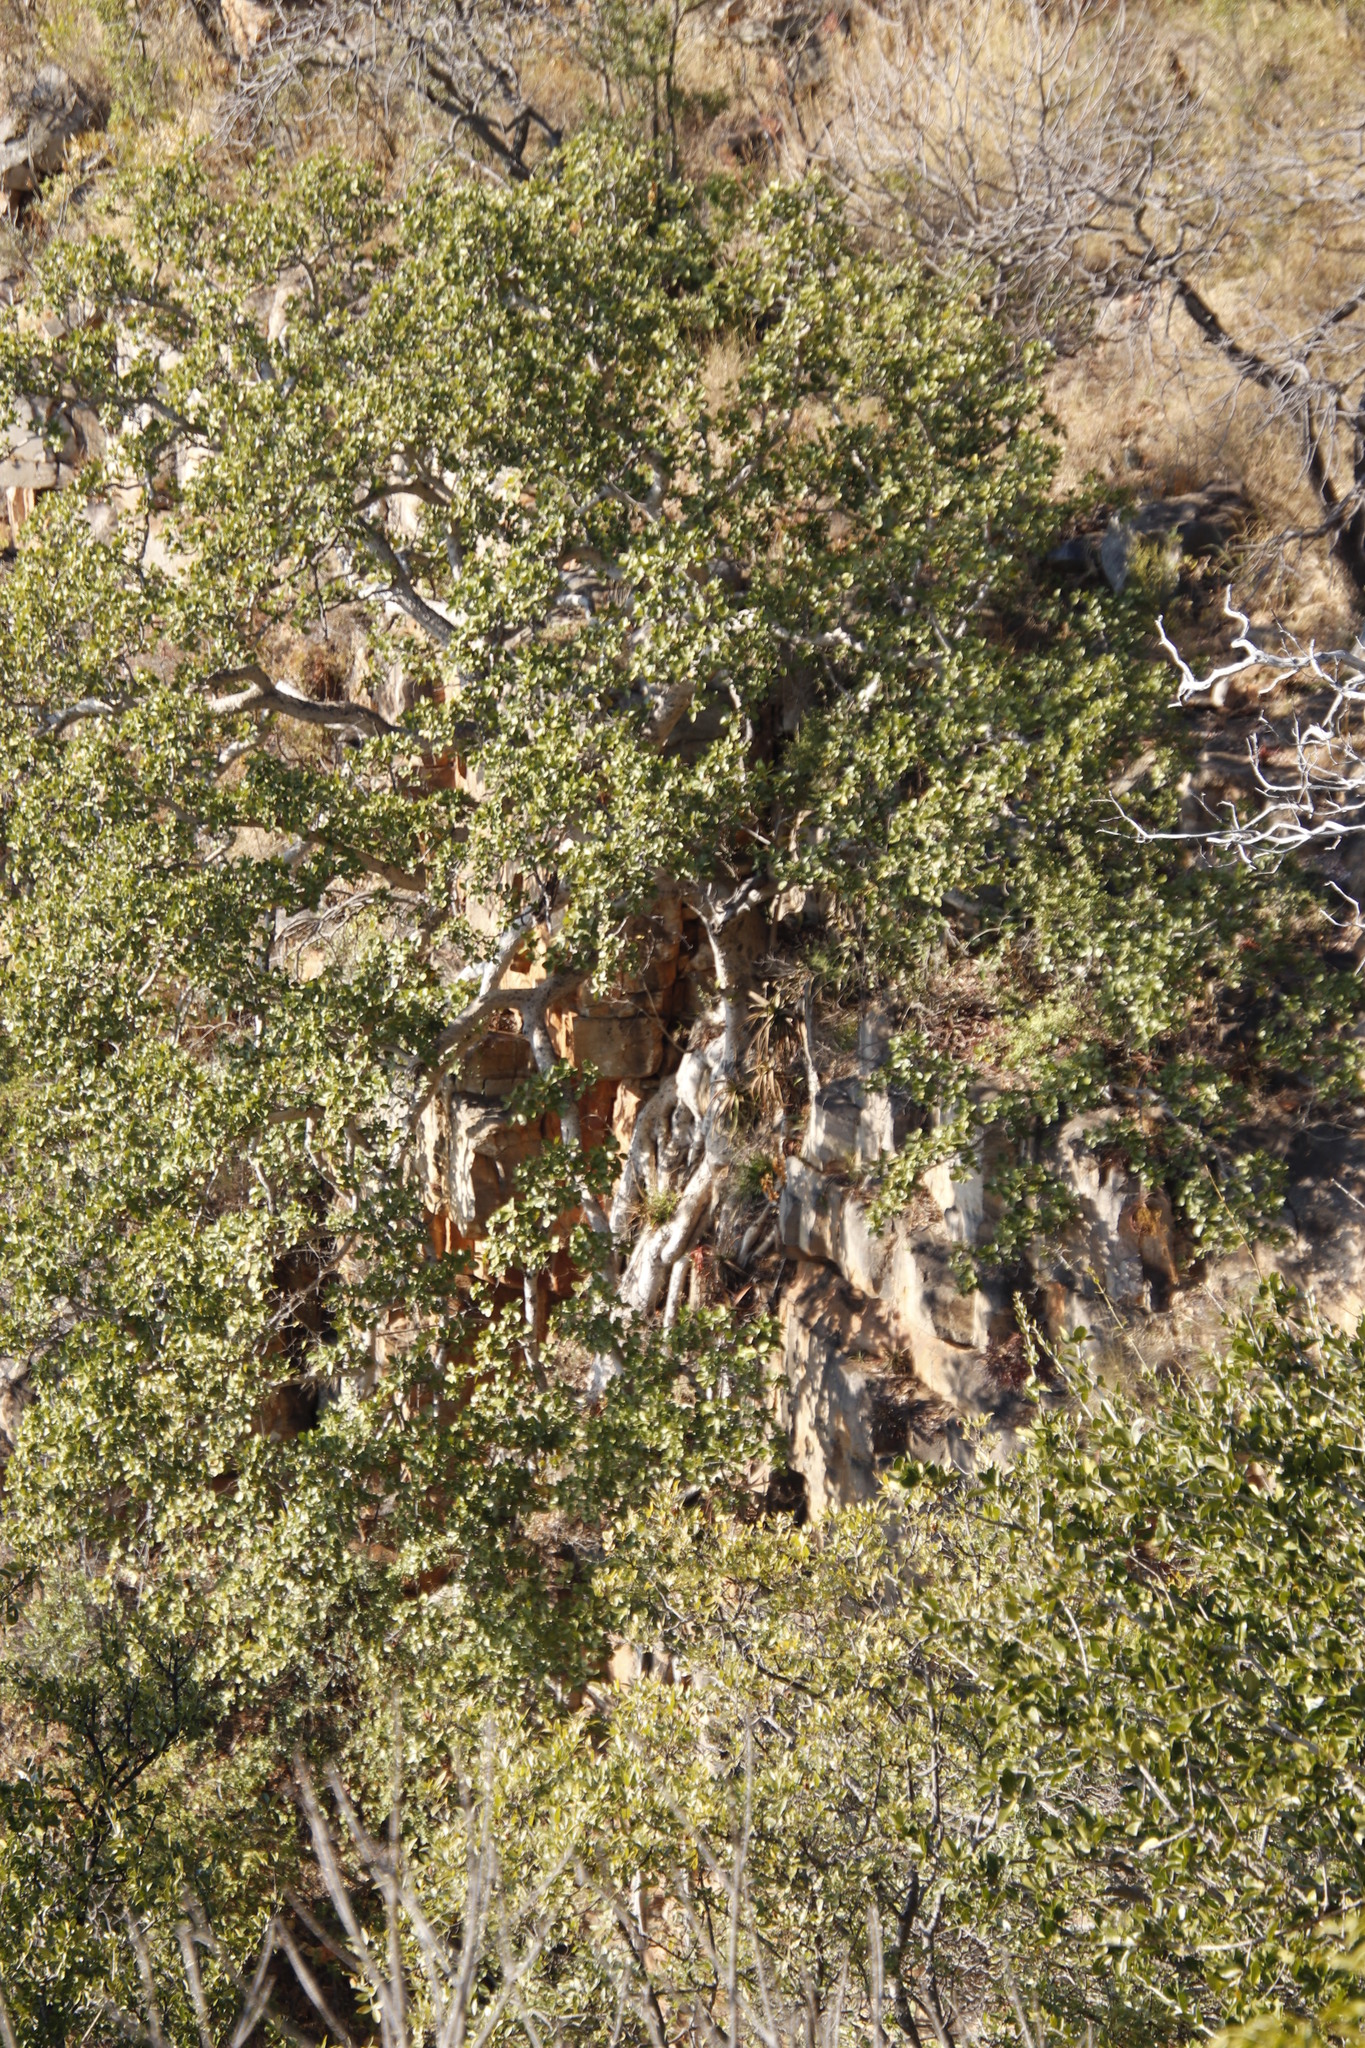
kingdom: Plantae
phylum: Tracheophyta
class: Magnoliopsida
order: Rosales
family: Moraceae
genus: Ficus
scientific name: Ficus abutilifolia
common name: Large-leaved rock fig
